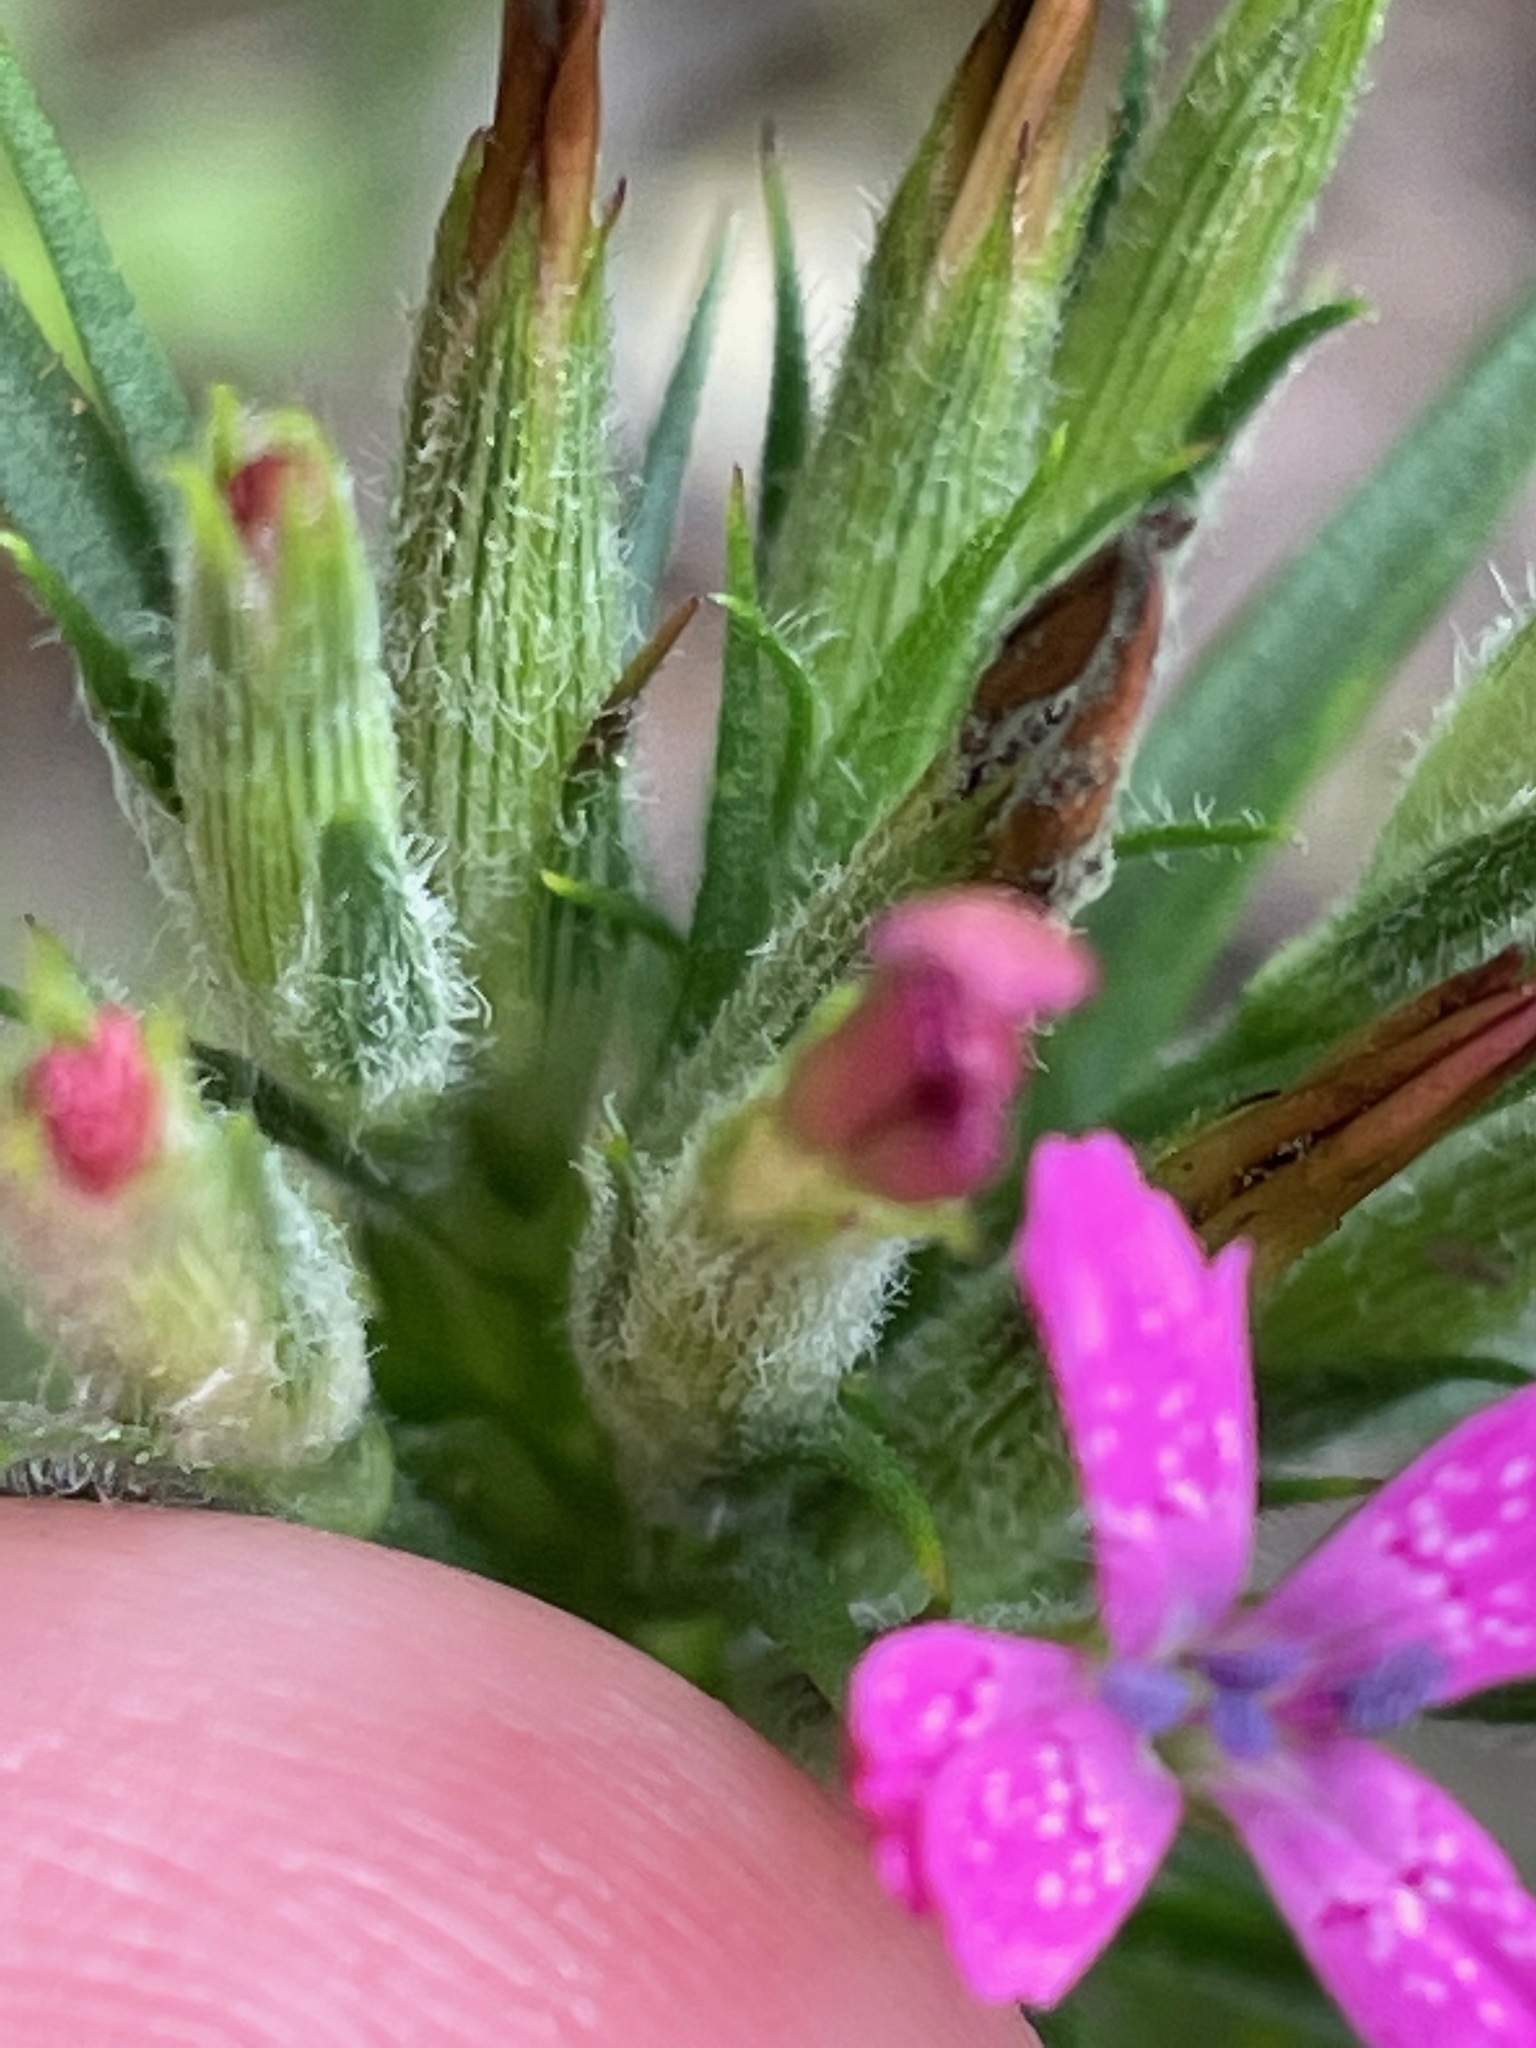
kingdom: Plantae
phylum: Tracheophyta
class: Magnoliopsida
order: Caryophyllales
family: Caryophyllaceae
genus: Dianthus
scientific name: Dianthus armeria
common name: Deptford pink
